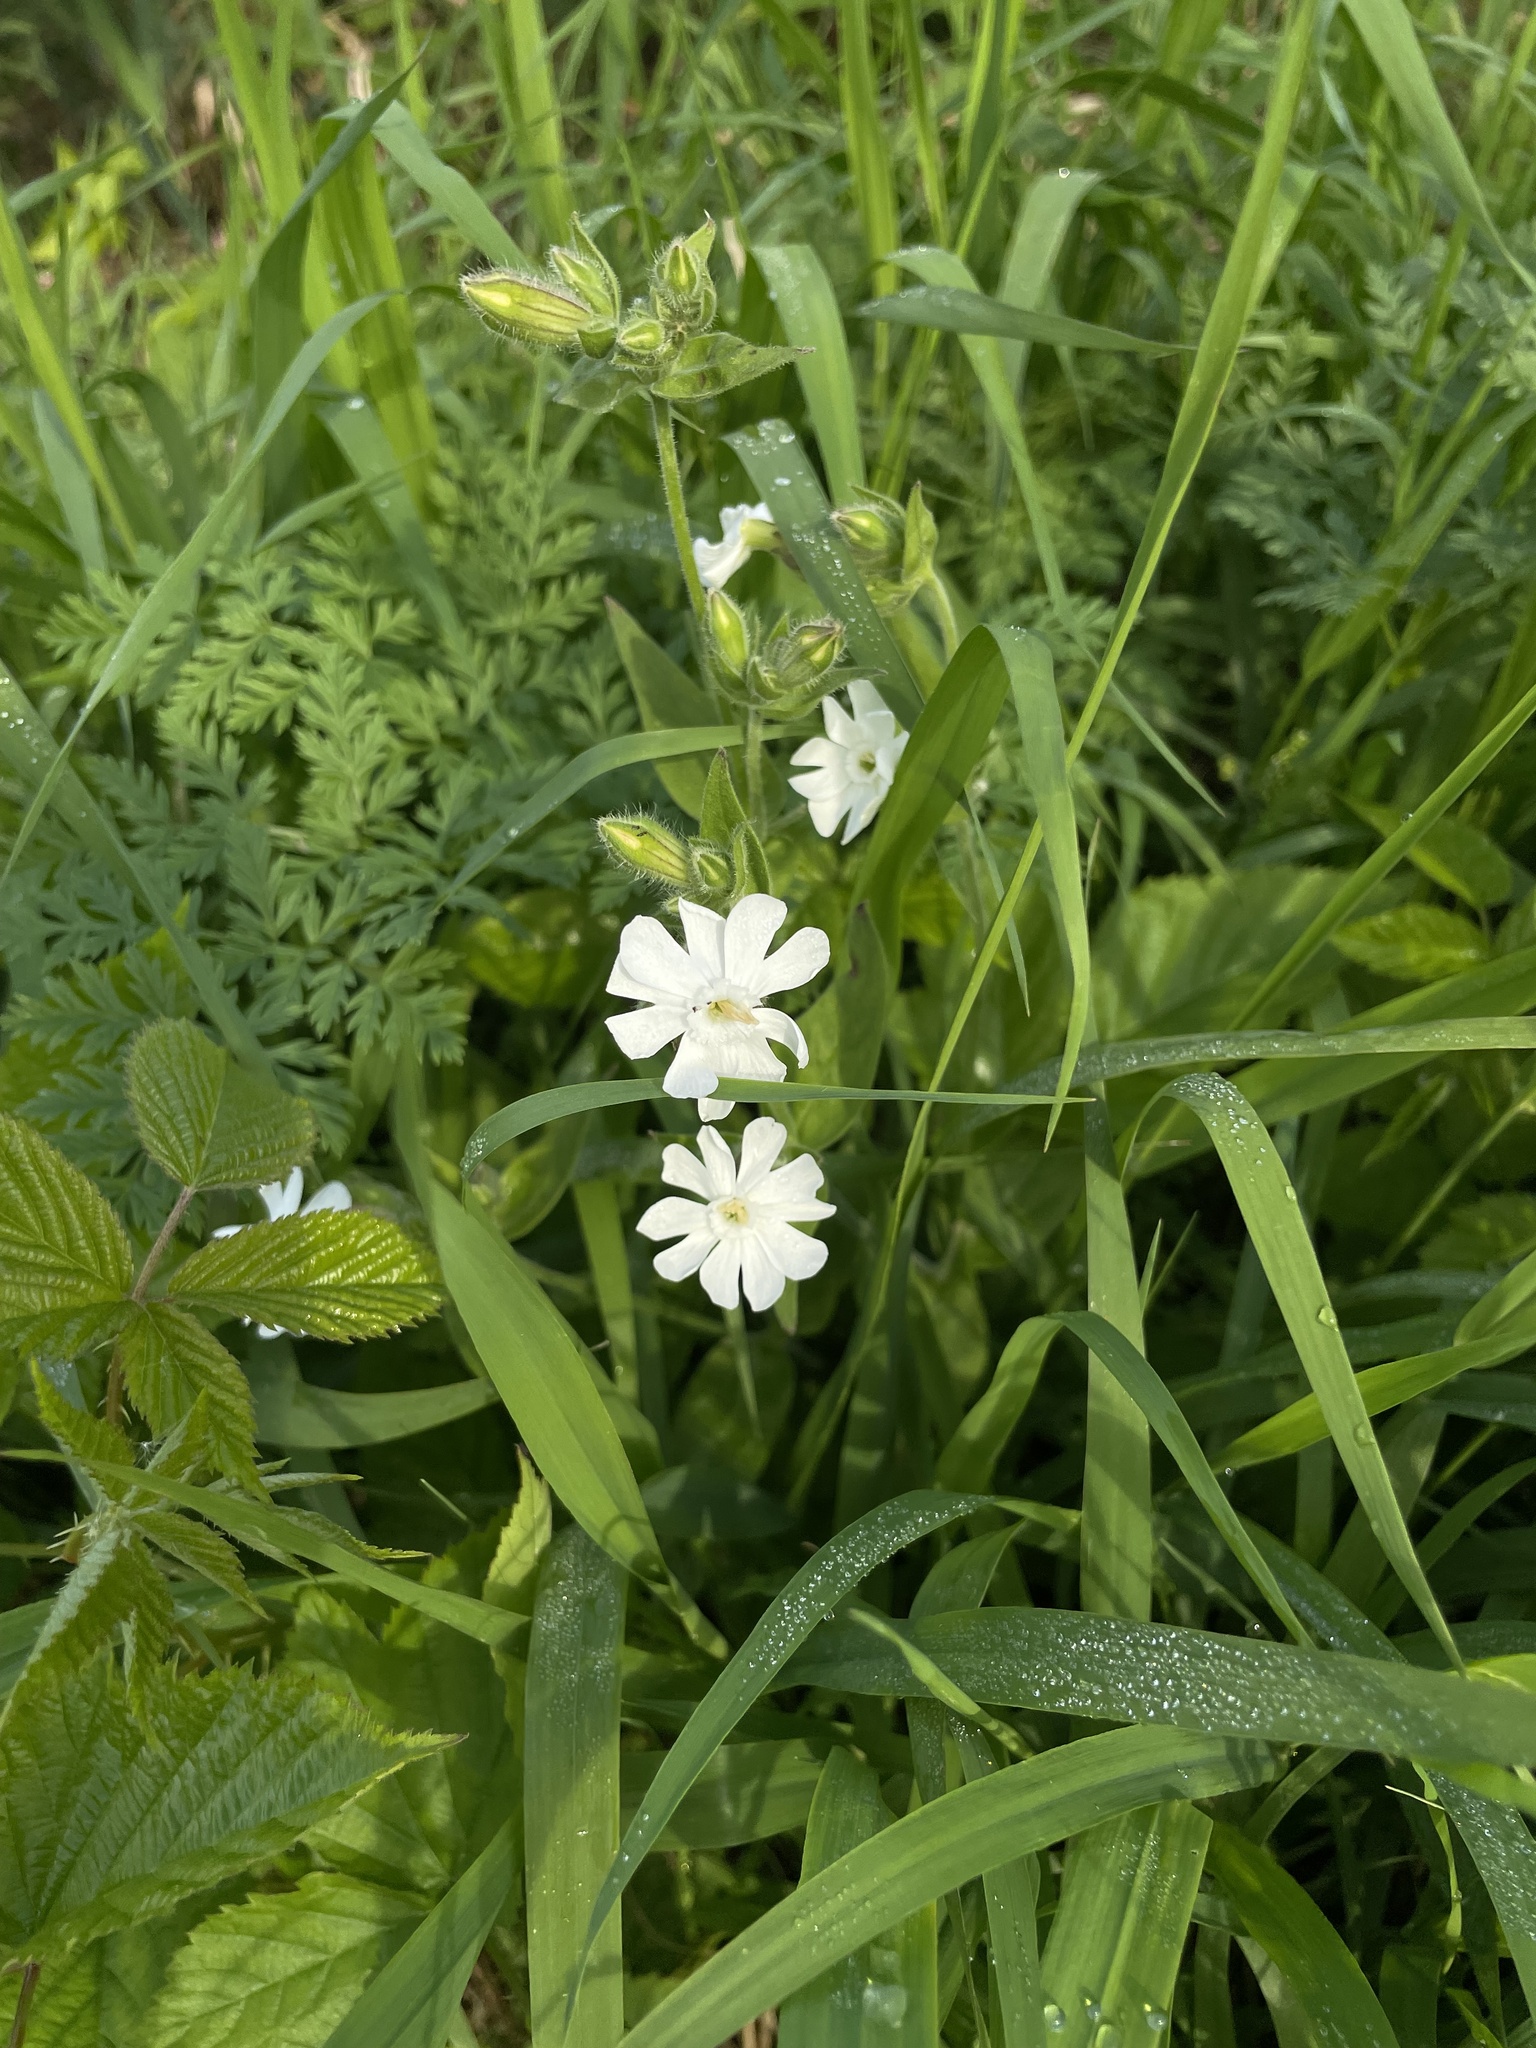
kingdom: Plantae
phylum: Tracheophyta
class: Magnoliopsida
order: Caryophyllales
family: Caryophyllaceae
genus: Silene
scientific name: Silene latifolia
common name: White campion
